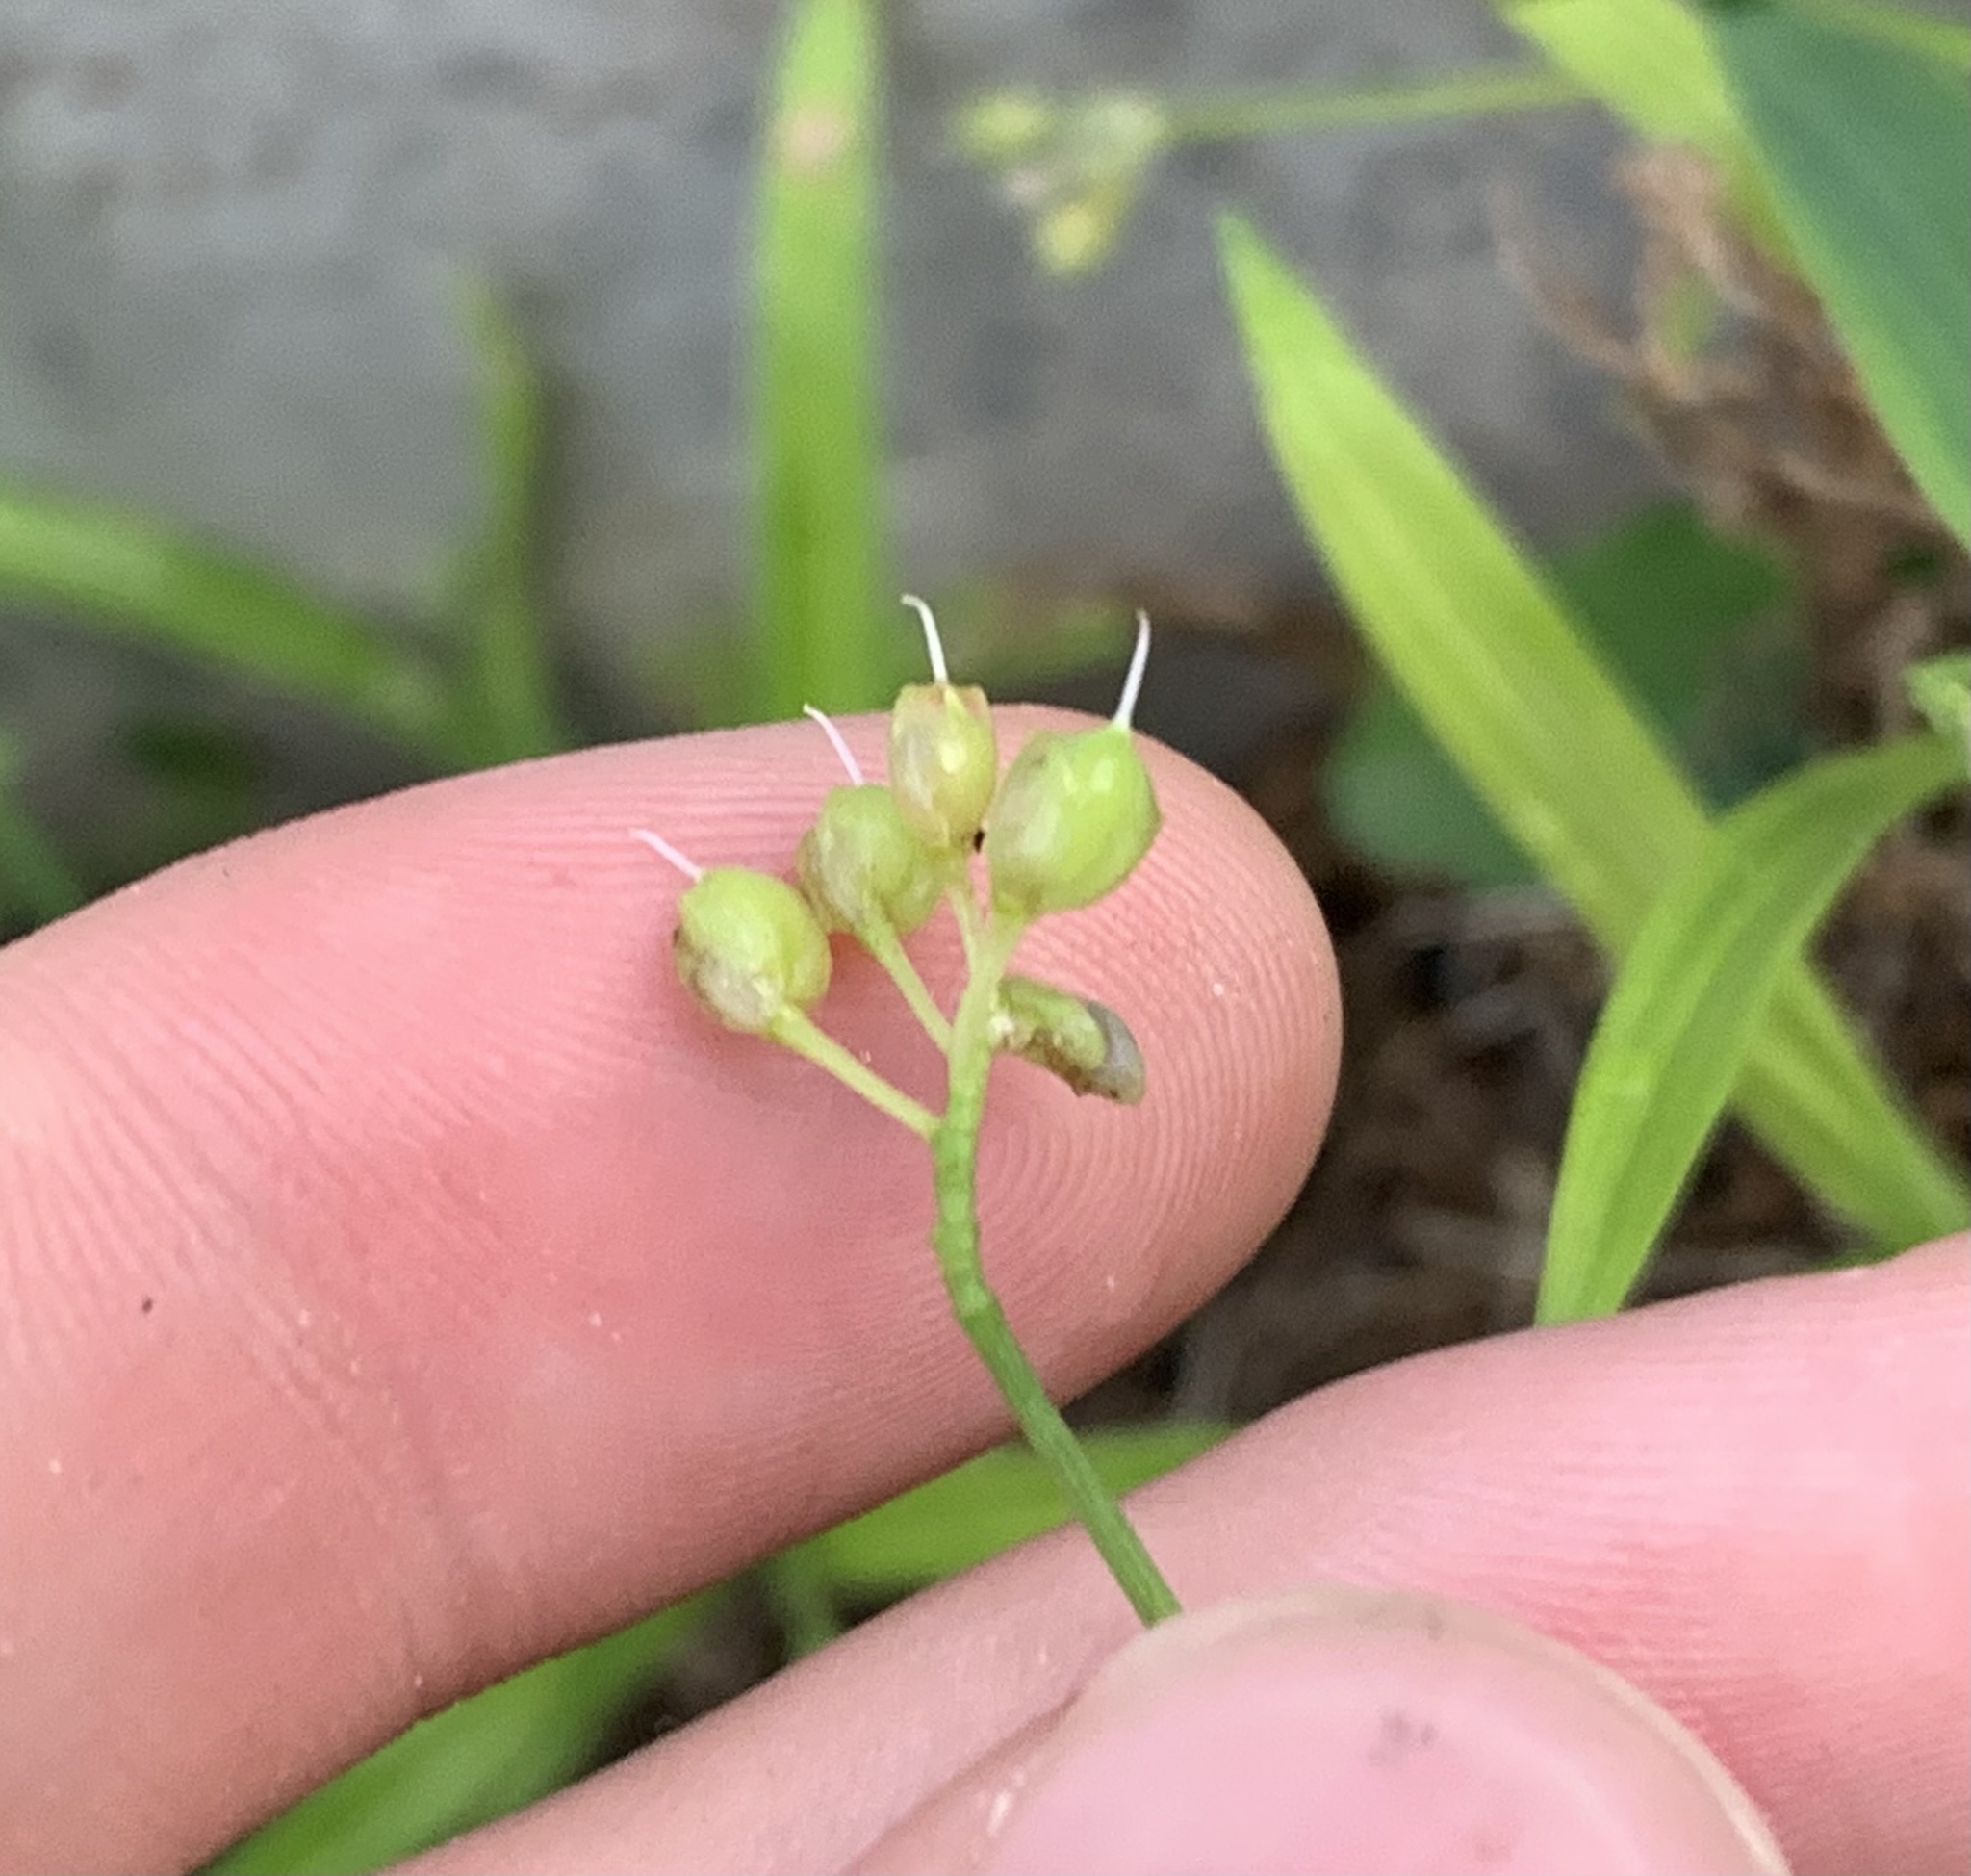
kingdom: Plantae
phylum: Tracheophyta
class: Liliopsida
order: Commelinales
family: Commelinaceae
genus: Murdannia
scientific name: Murdannia nudiflora
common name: Nakedstem dewflower
